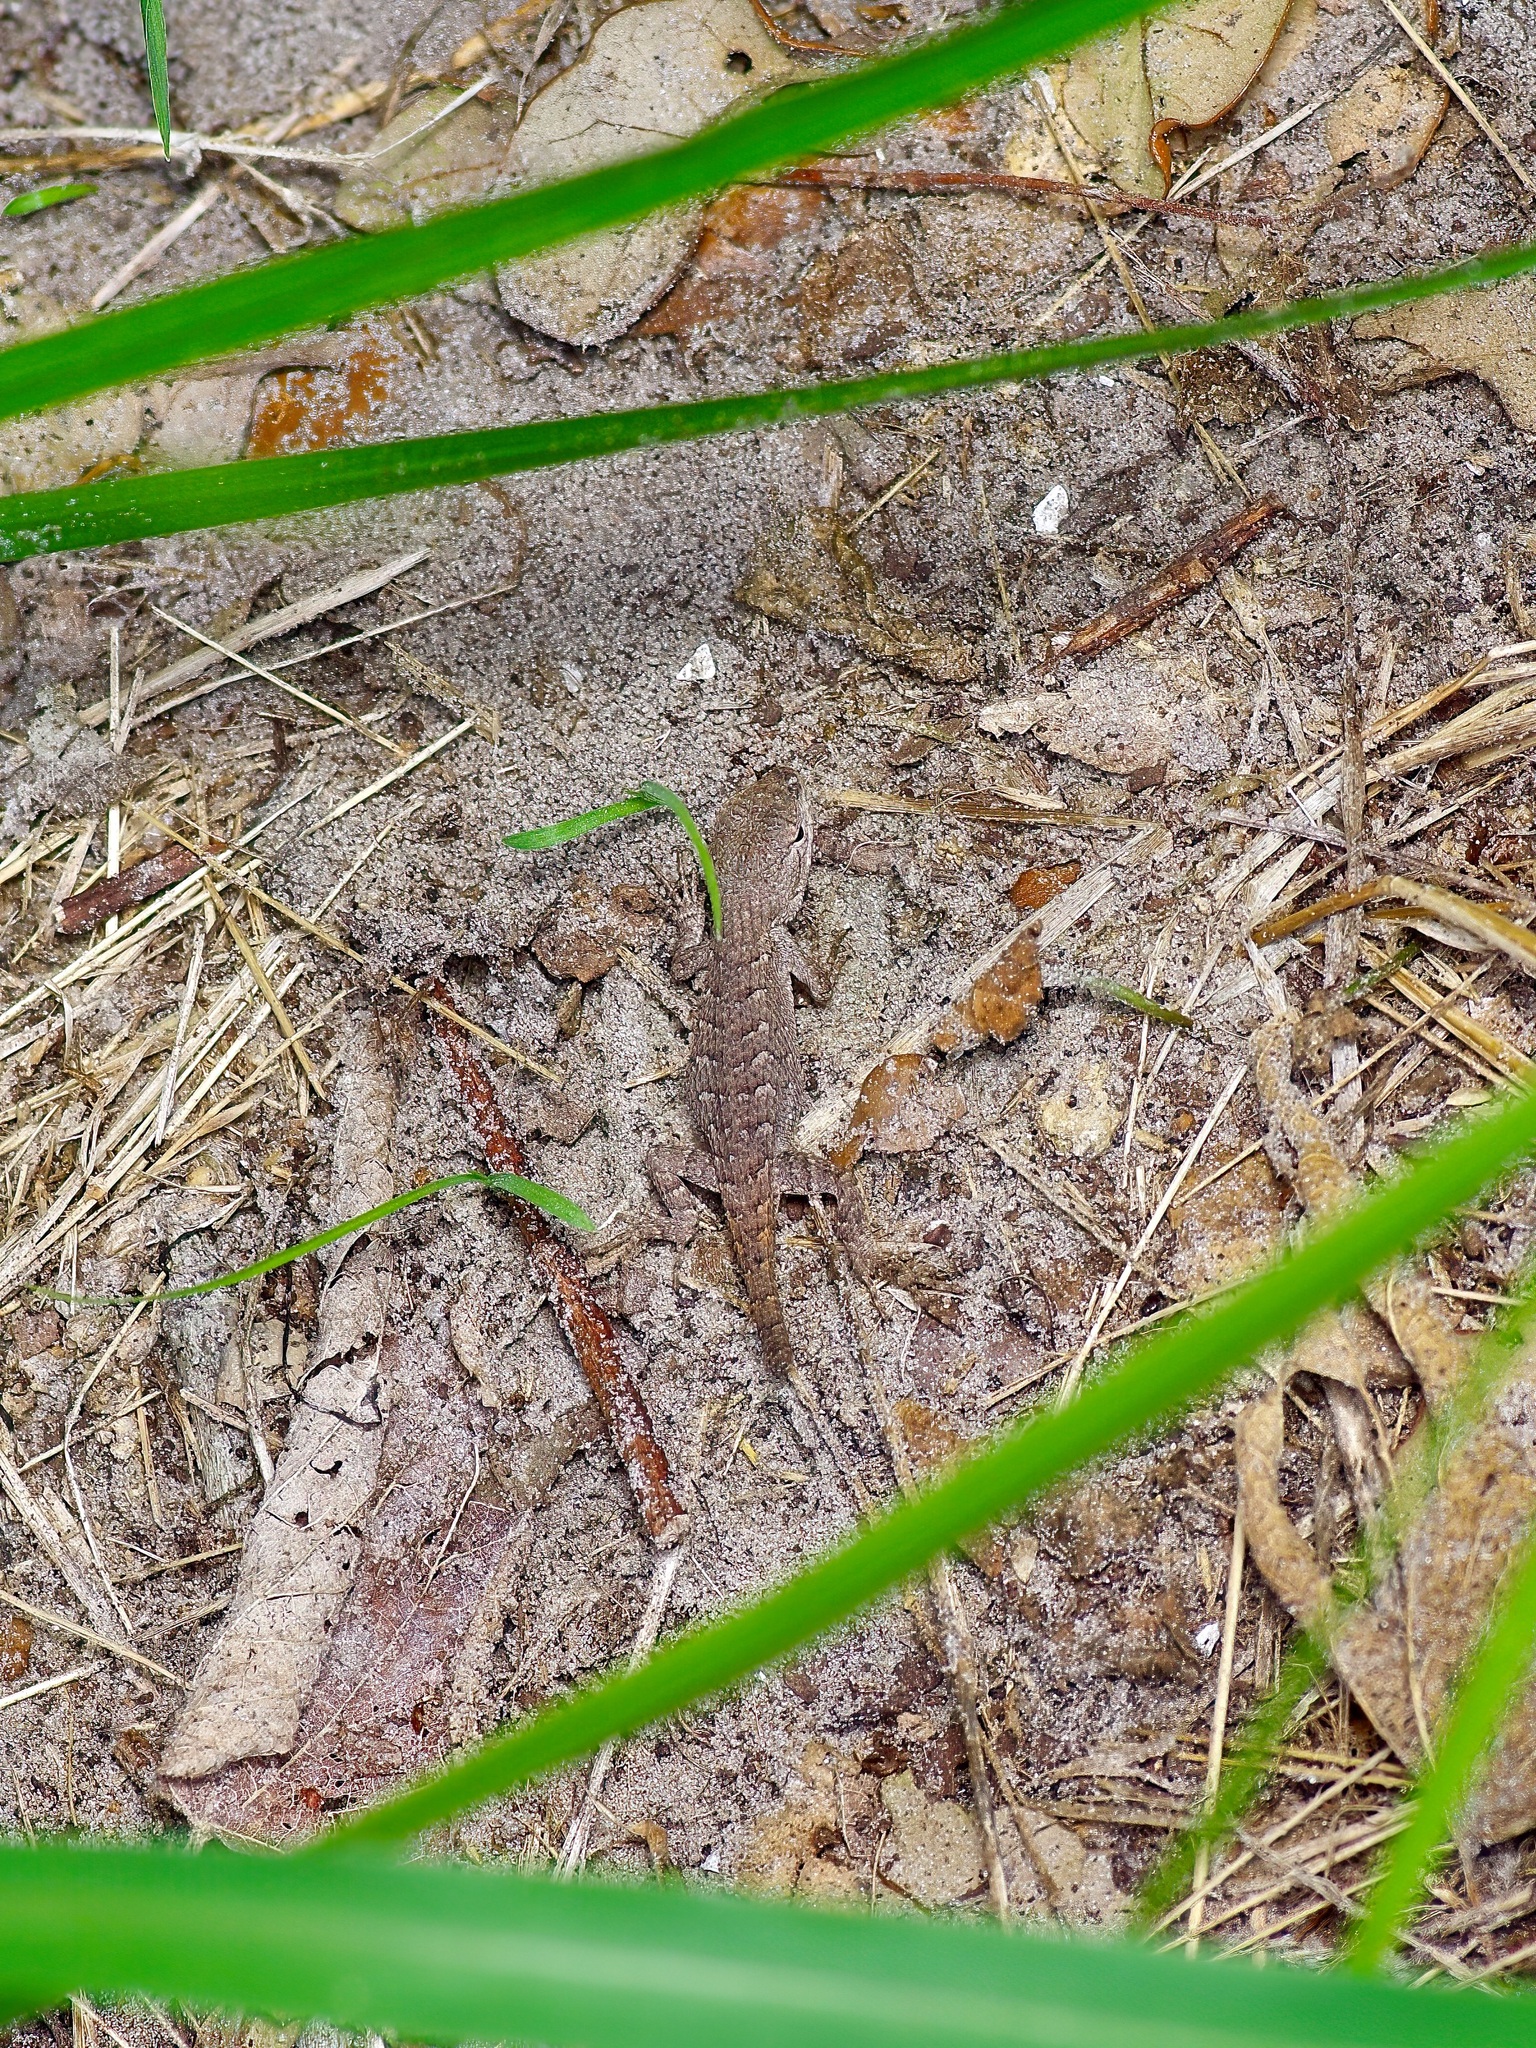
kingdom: Animalia
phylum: Chordata
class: Squamata
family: Phrynosomatidae
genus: Sceloporus
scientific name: Sceloporus consobrinus
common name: Southern prairie lizard
